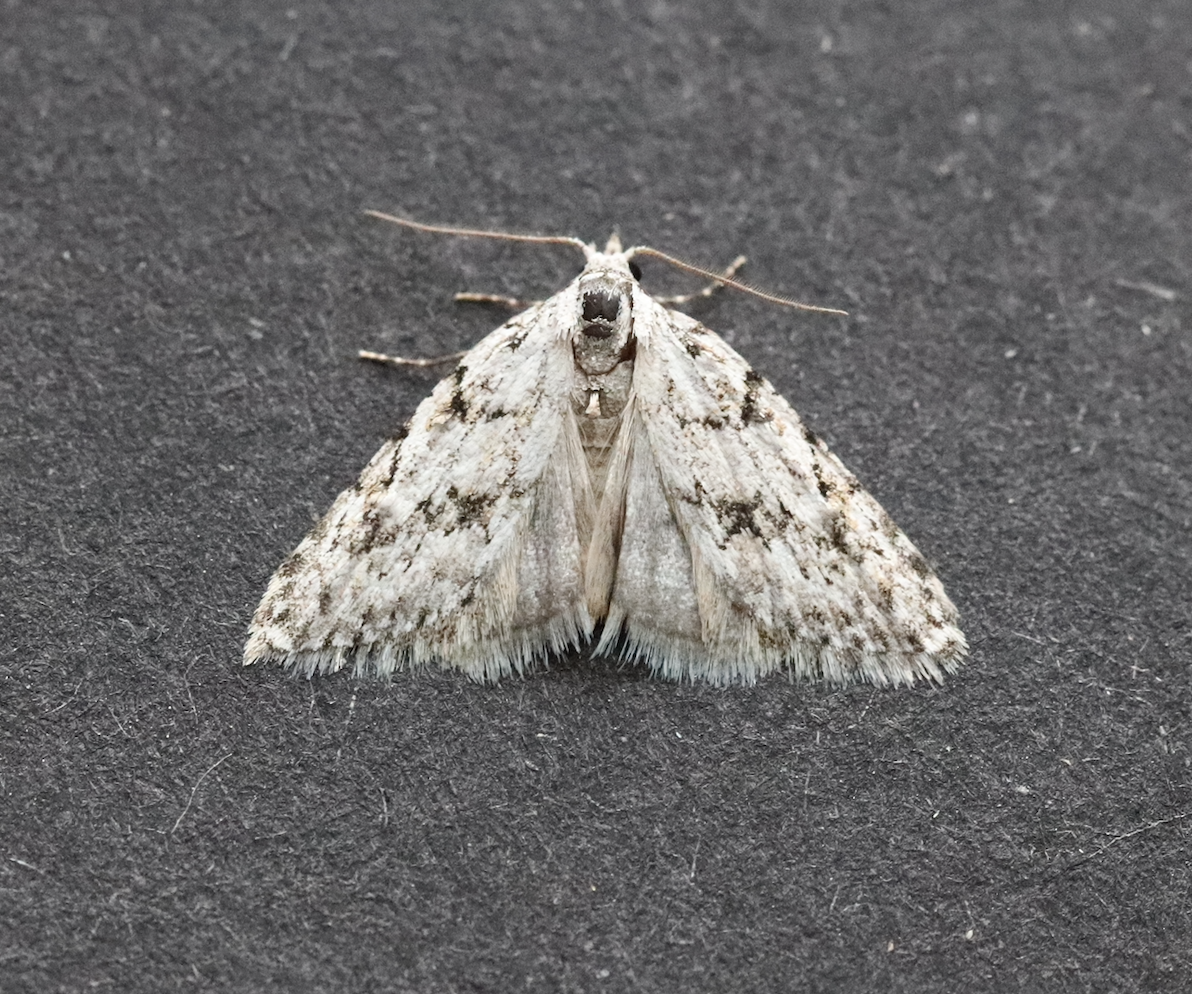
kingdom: Animalia
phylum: Arthropoda
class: Insecta
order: Lepidoptera
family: Nolidae
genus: Nola
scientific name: Nola cicatricalis
